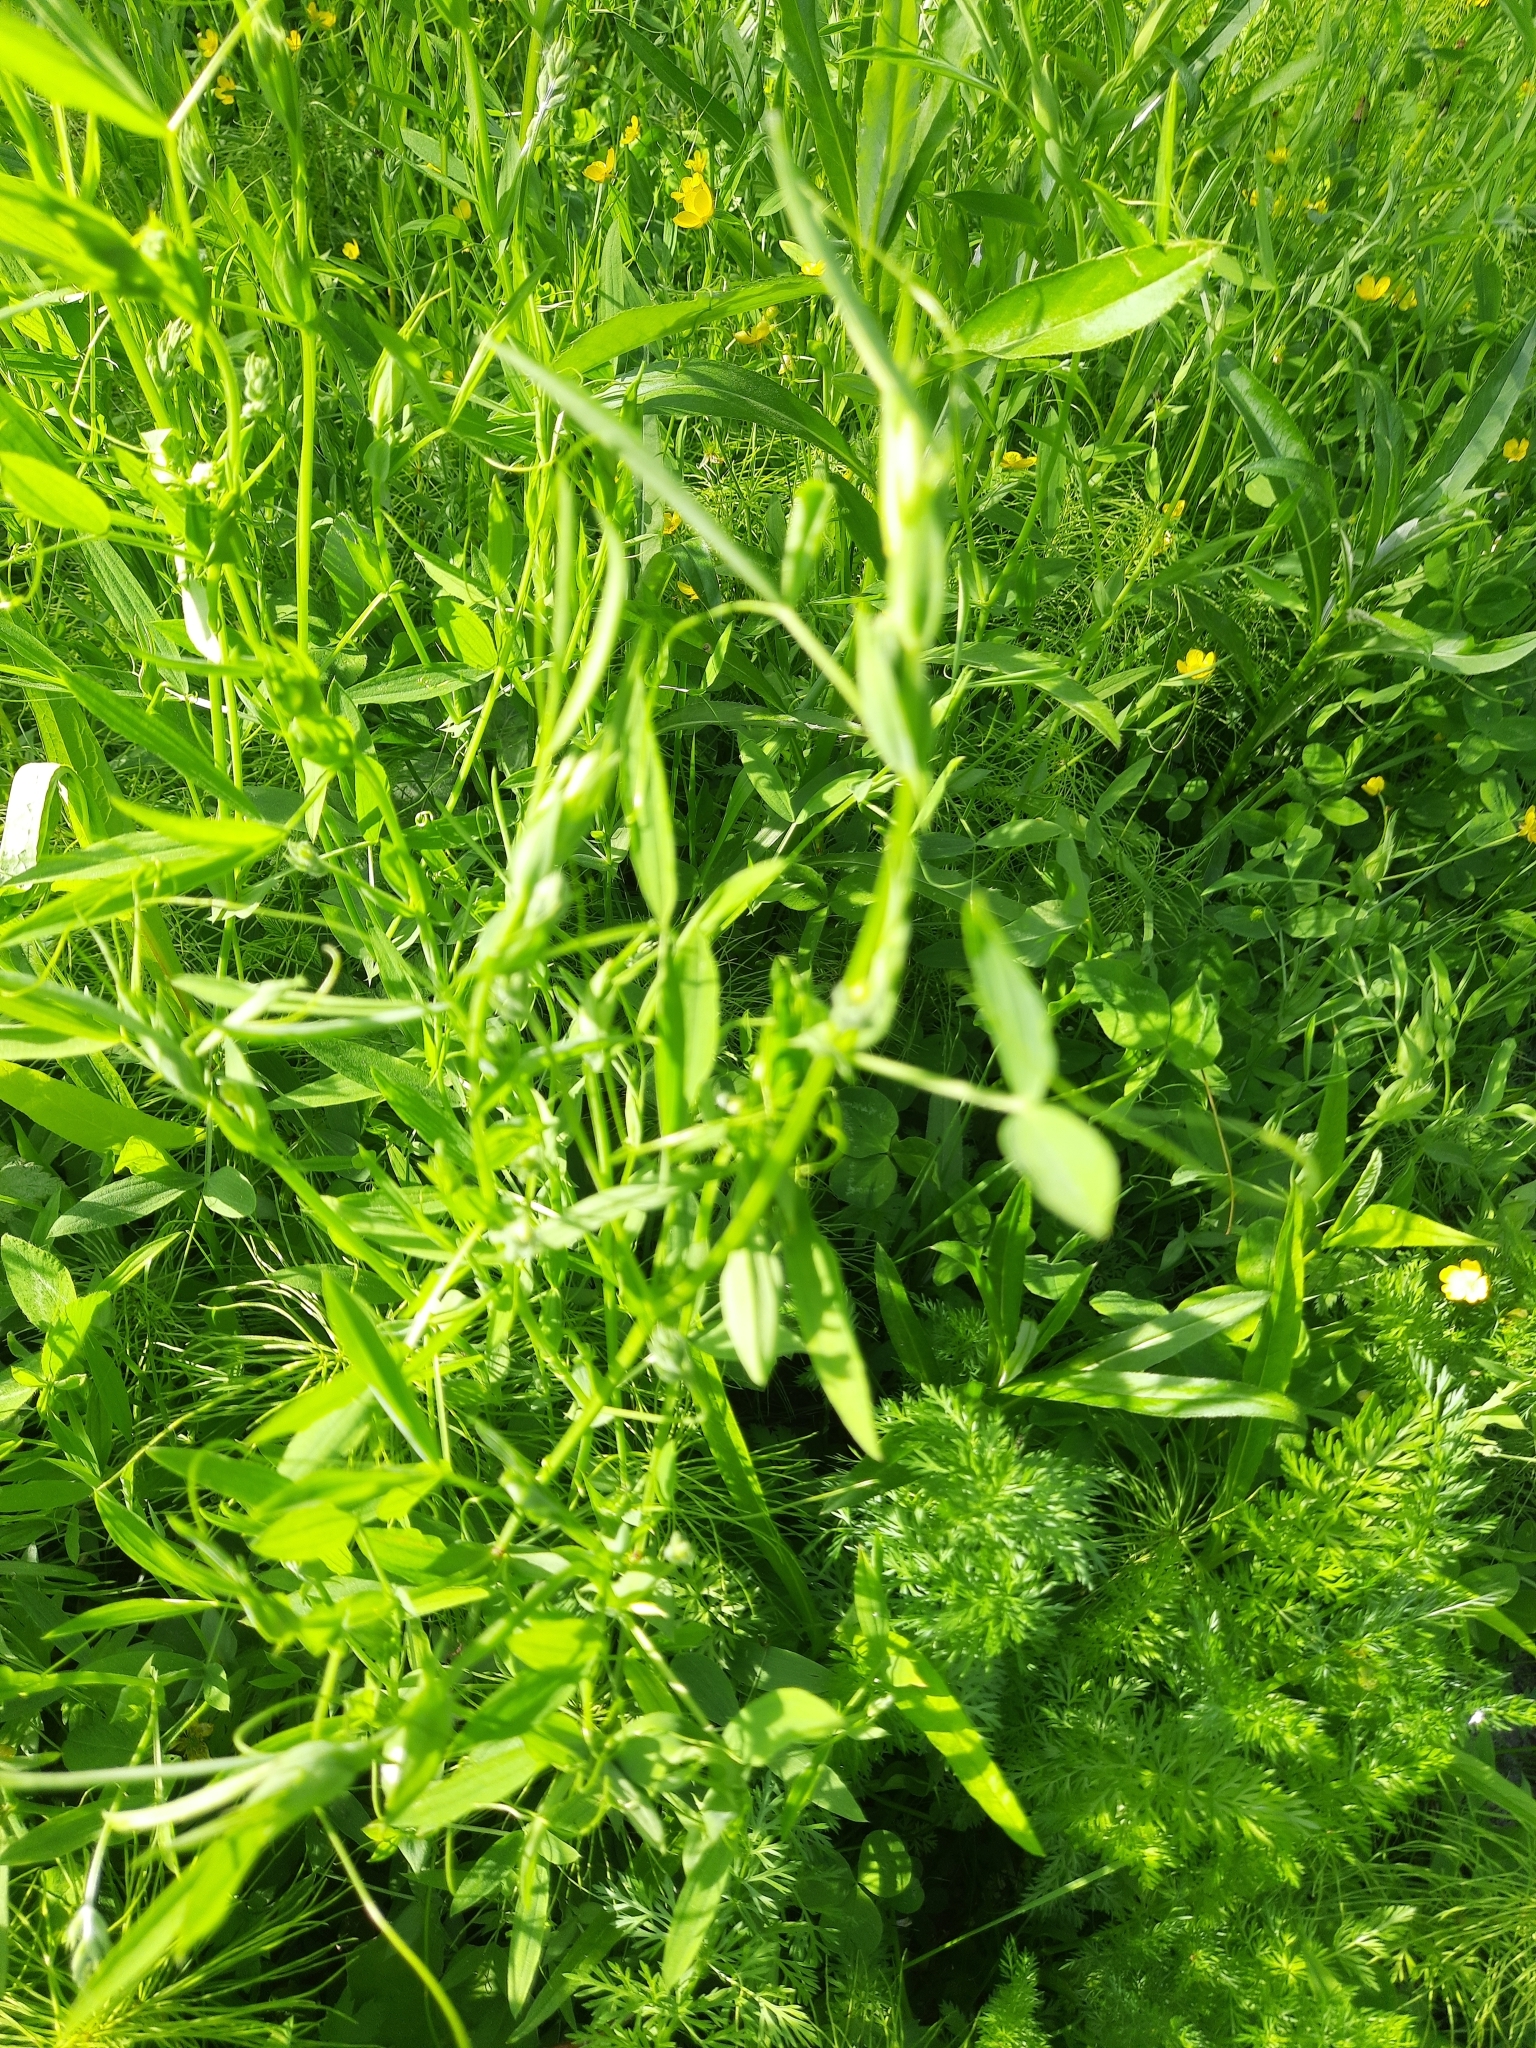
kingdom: Plantae
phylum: Tracheophyta
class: Magnoliopsida
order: Fabales
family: Fabaceae
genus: Lathyrus
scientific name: Lathyrus pratensis
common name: Meadow vetchling
